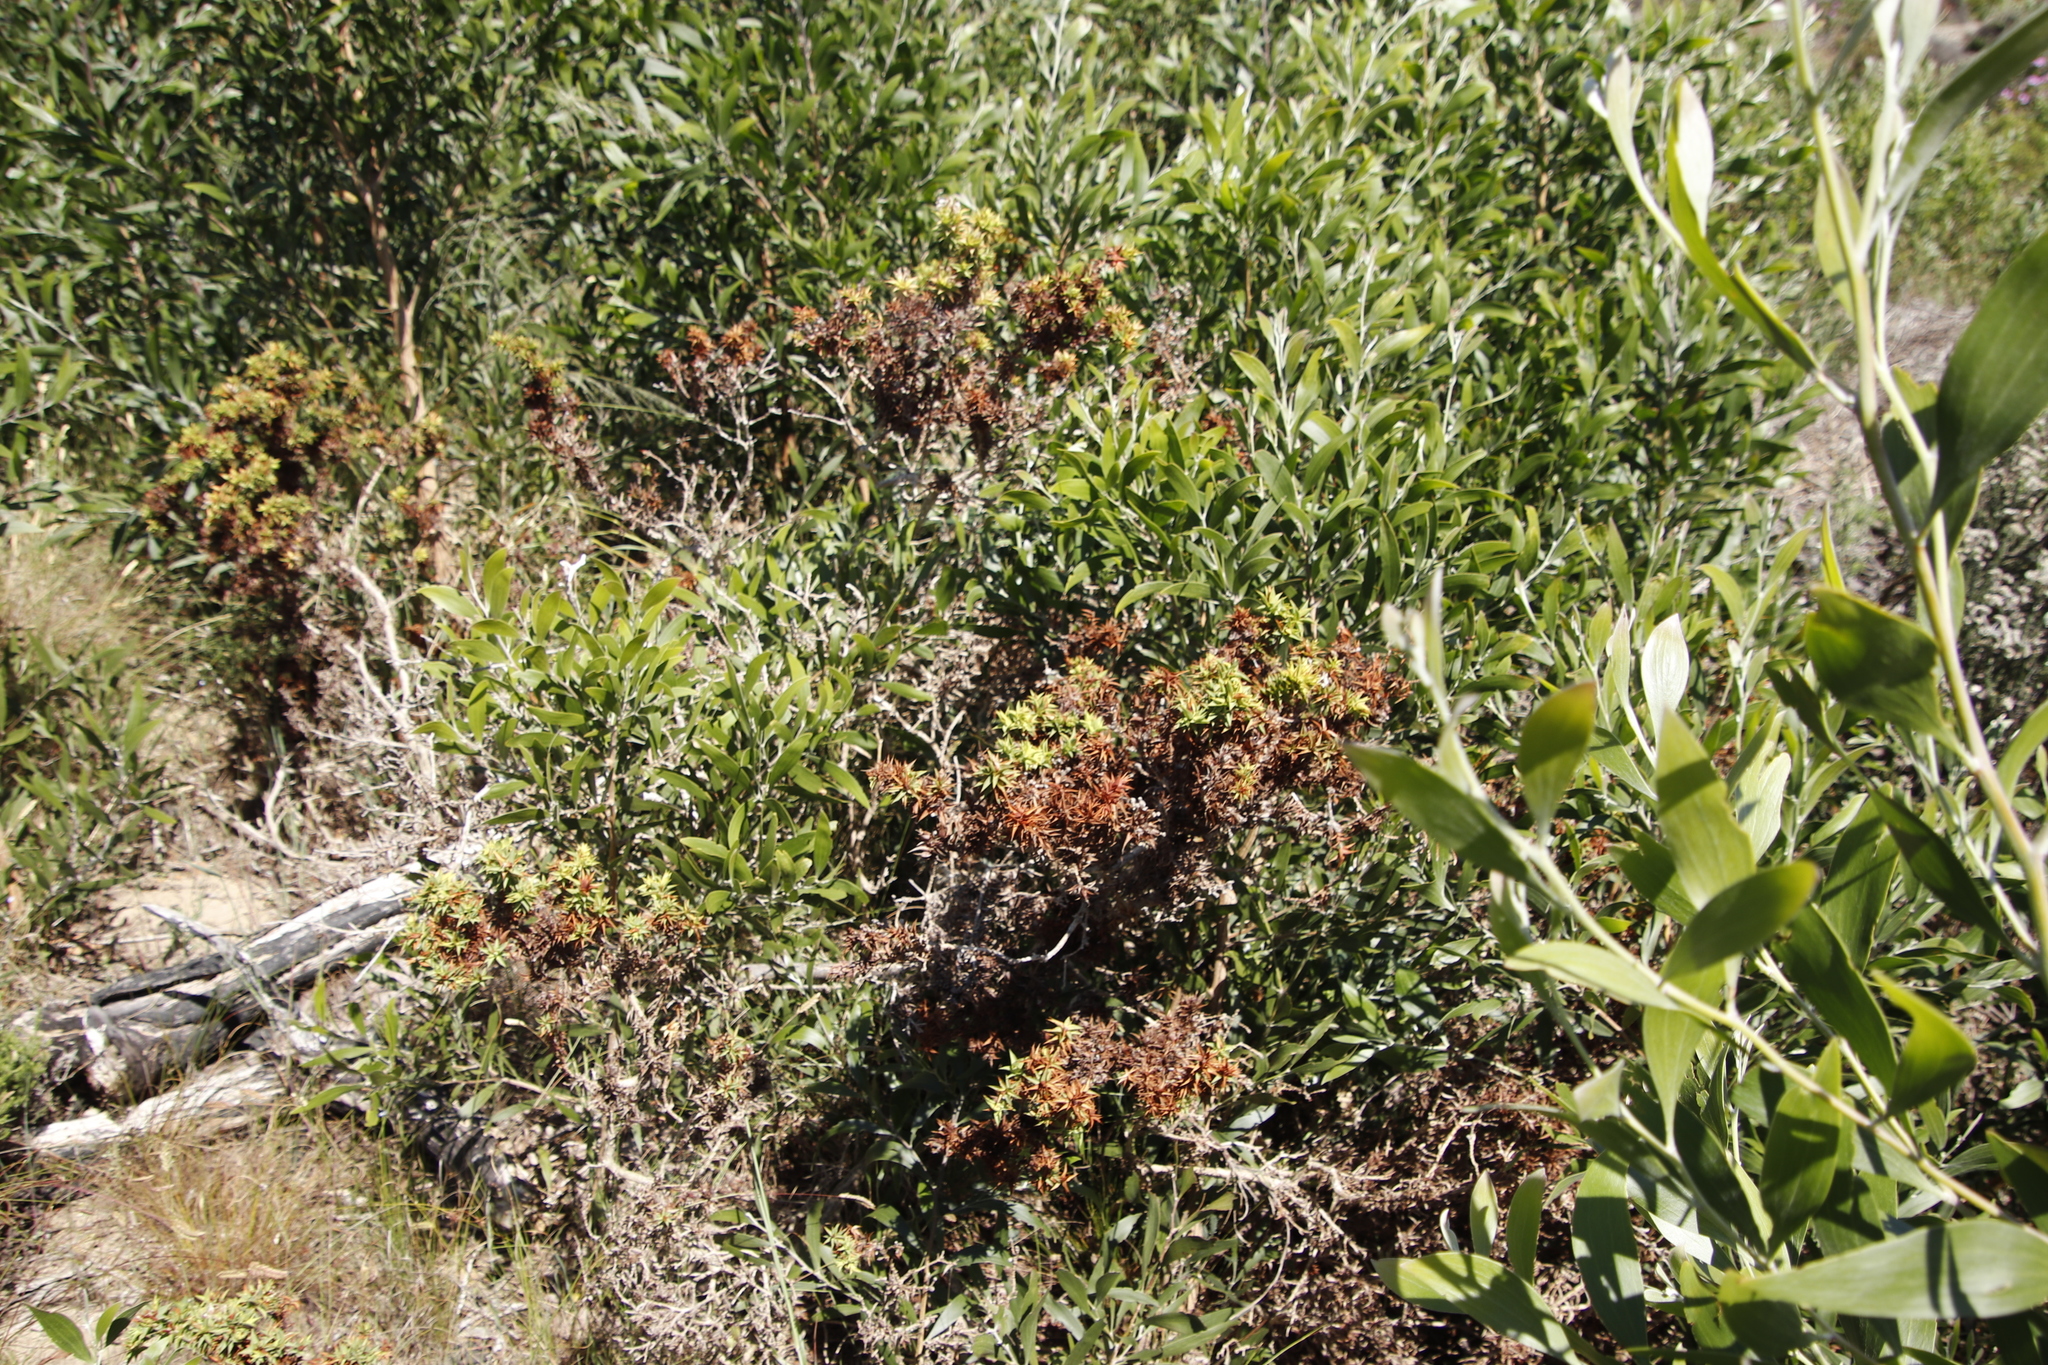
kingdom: Plantae
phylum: Tracheophyta
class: Magnoliopsida
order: Fabales
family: Fabaceae
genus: Aspalathus
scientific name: Aspalathus cordata
